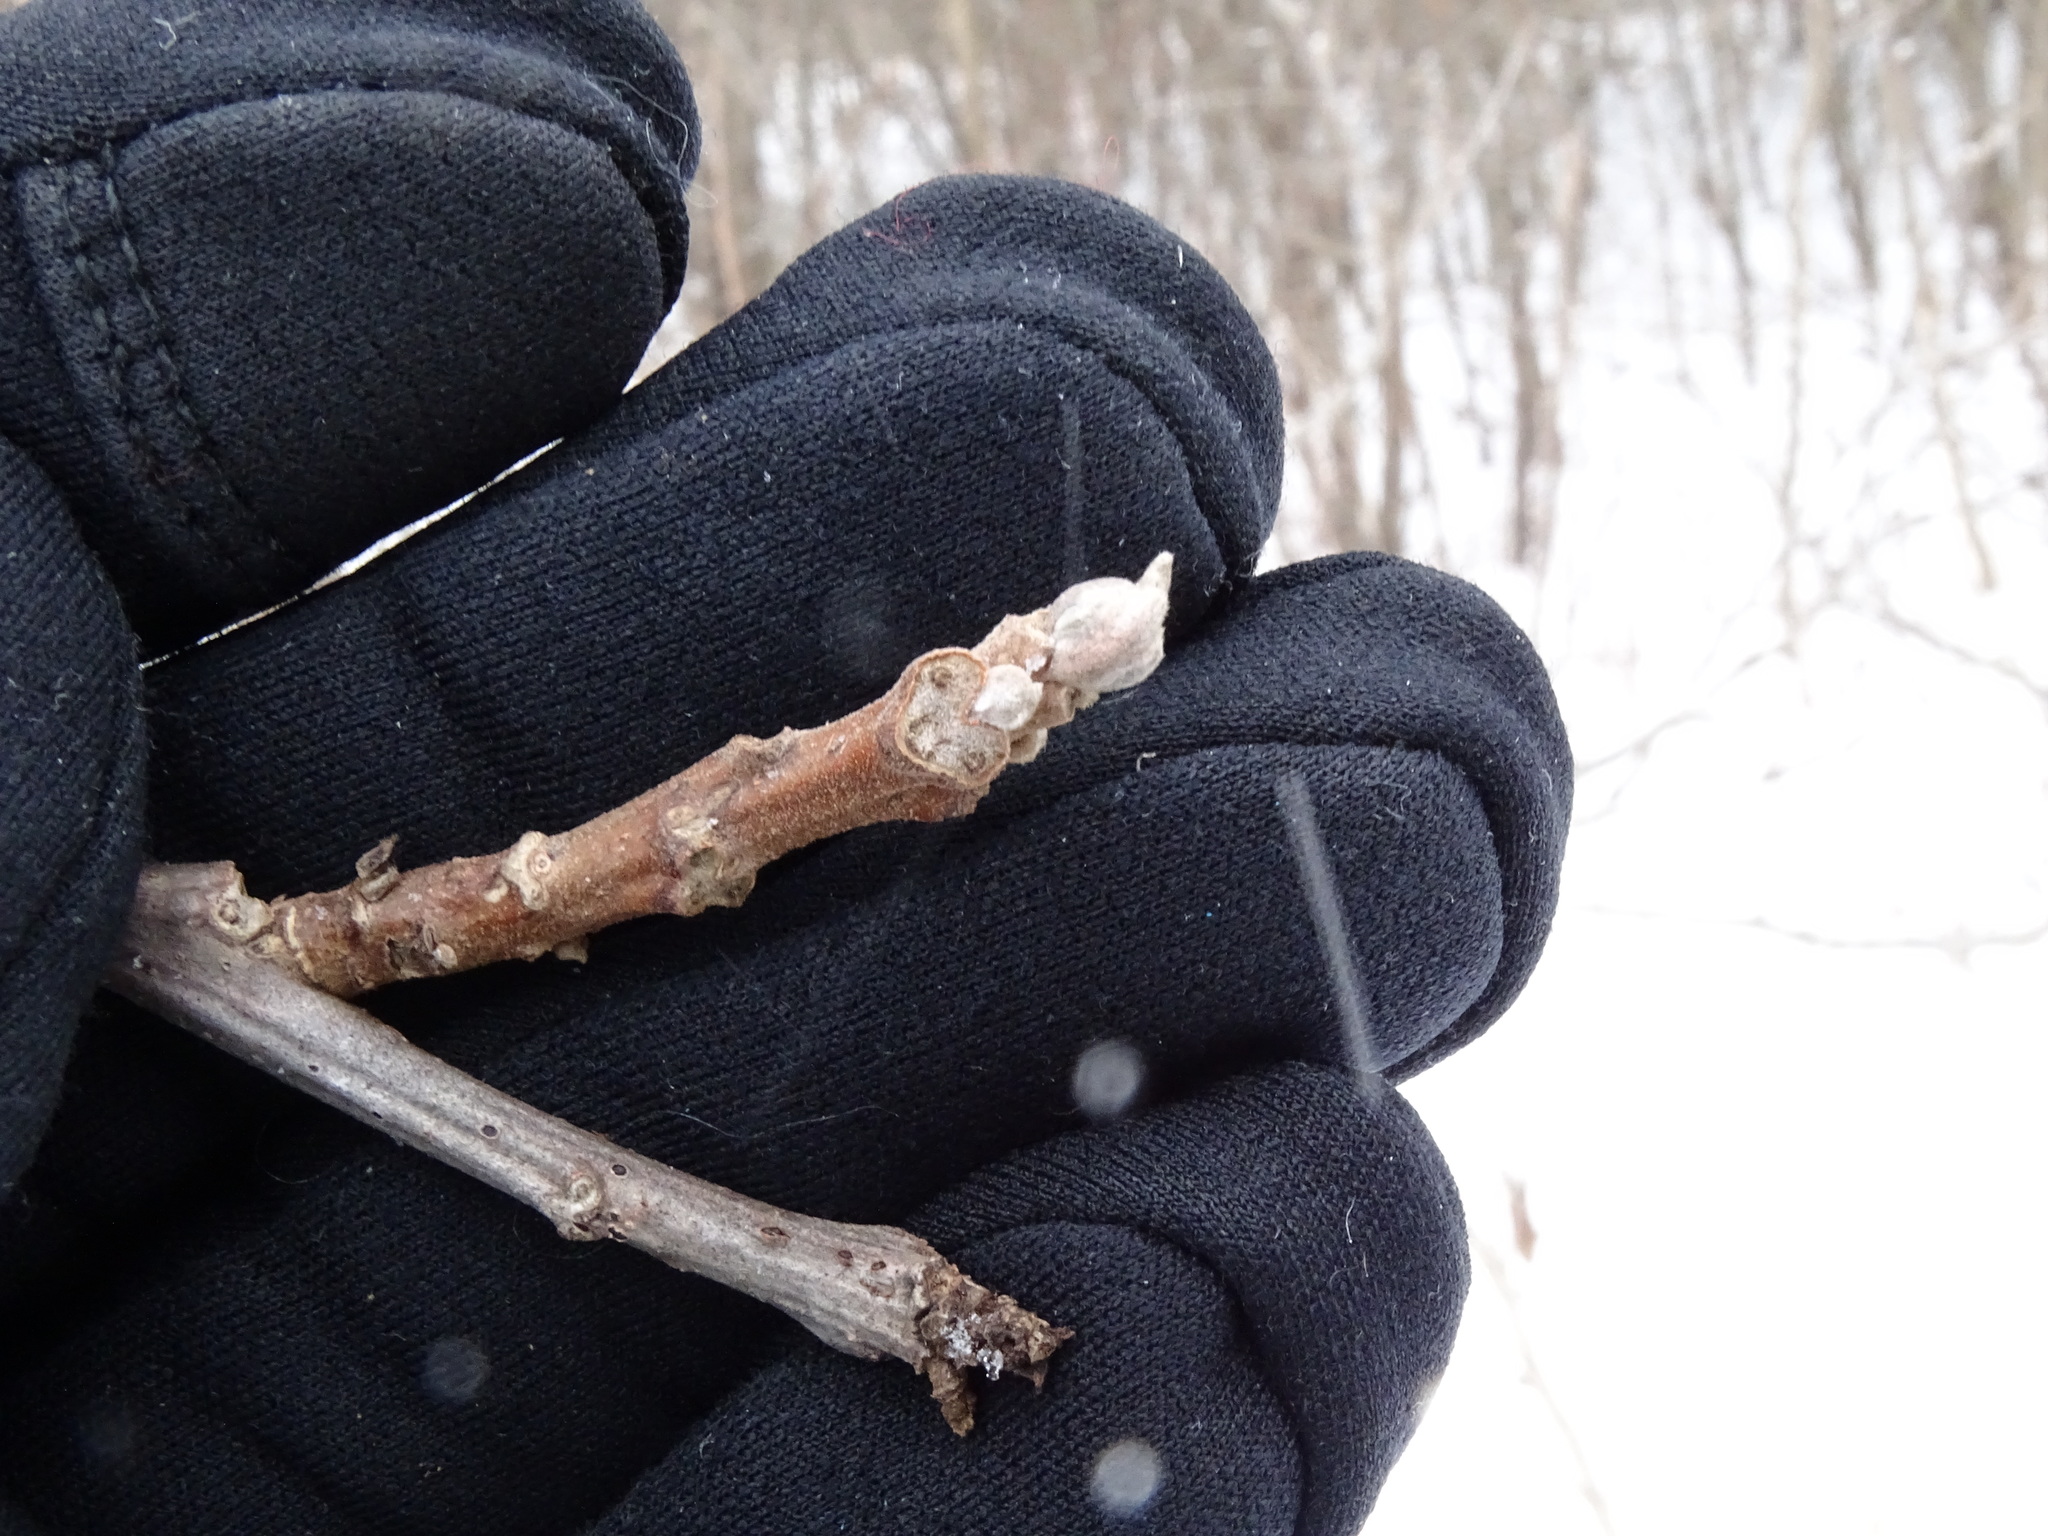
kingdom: Plantae
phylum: Tracheophyta
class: Magnoliopsida
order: Fagales
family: Juglandaceae
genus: Juglans
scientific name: Juglans nigra
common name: Black walnut
